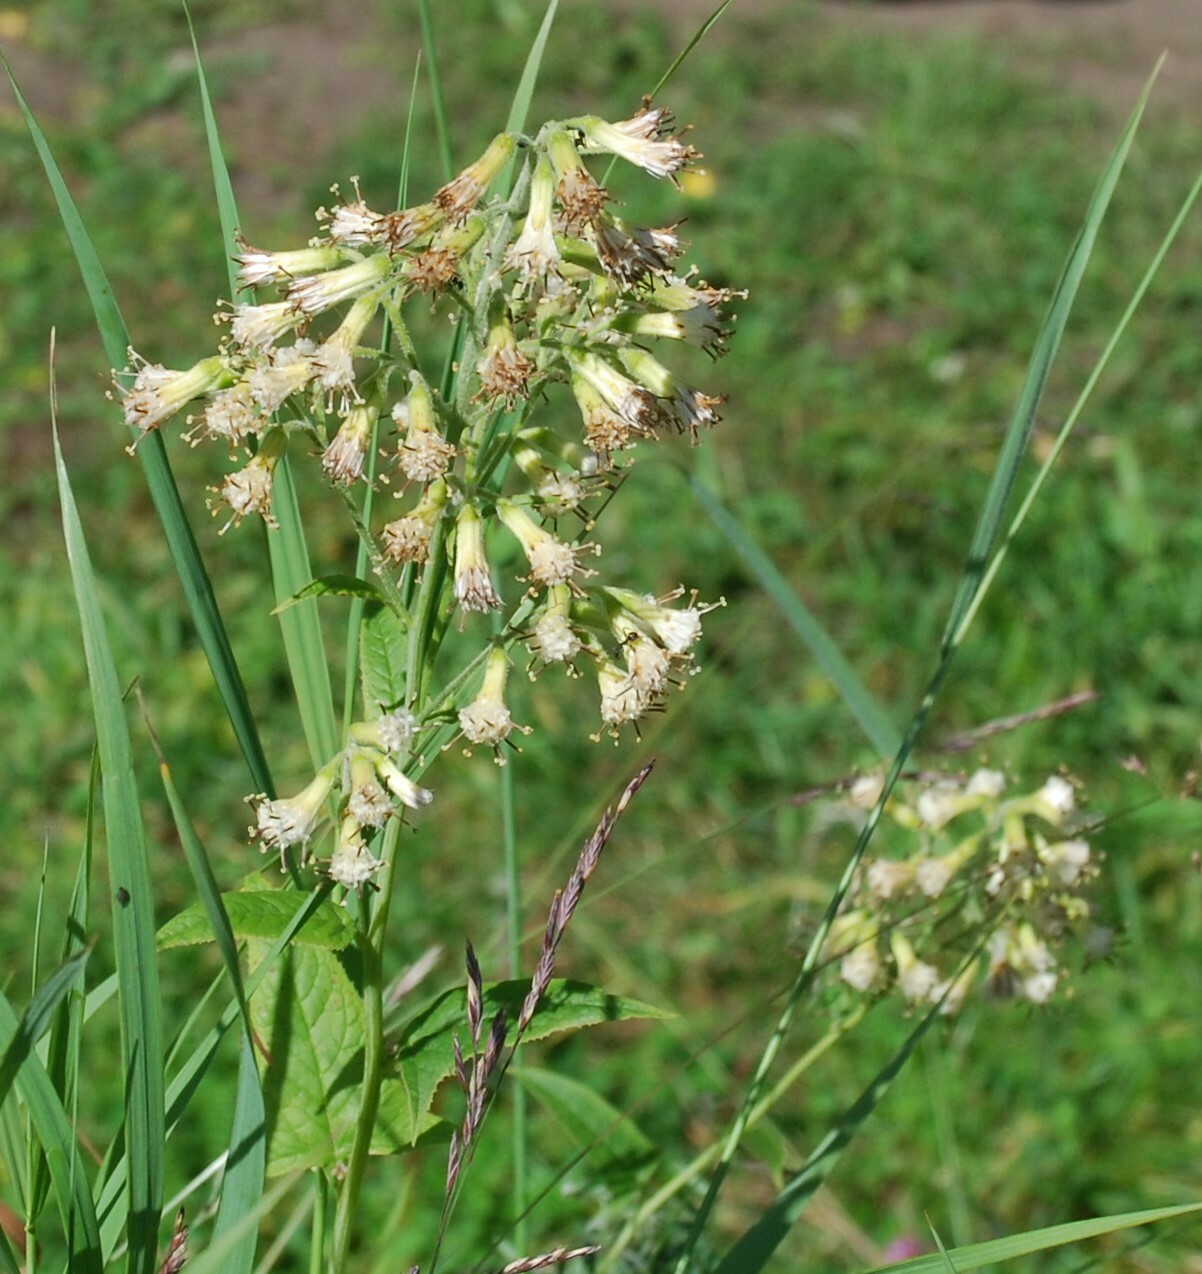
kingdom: Plantae
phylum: Tracheophyta
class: Magnoliopsida
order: Asterales
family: Asteraceae
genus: Parasenecio
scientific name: Parasenecio hastatus
